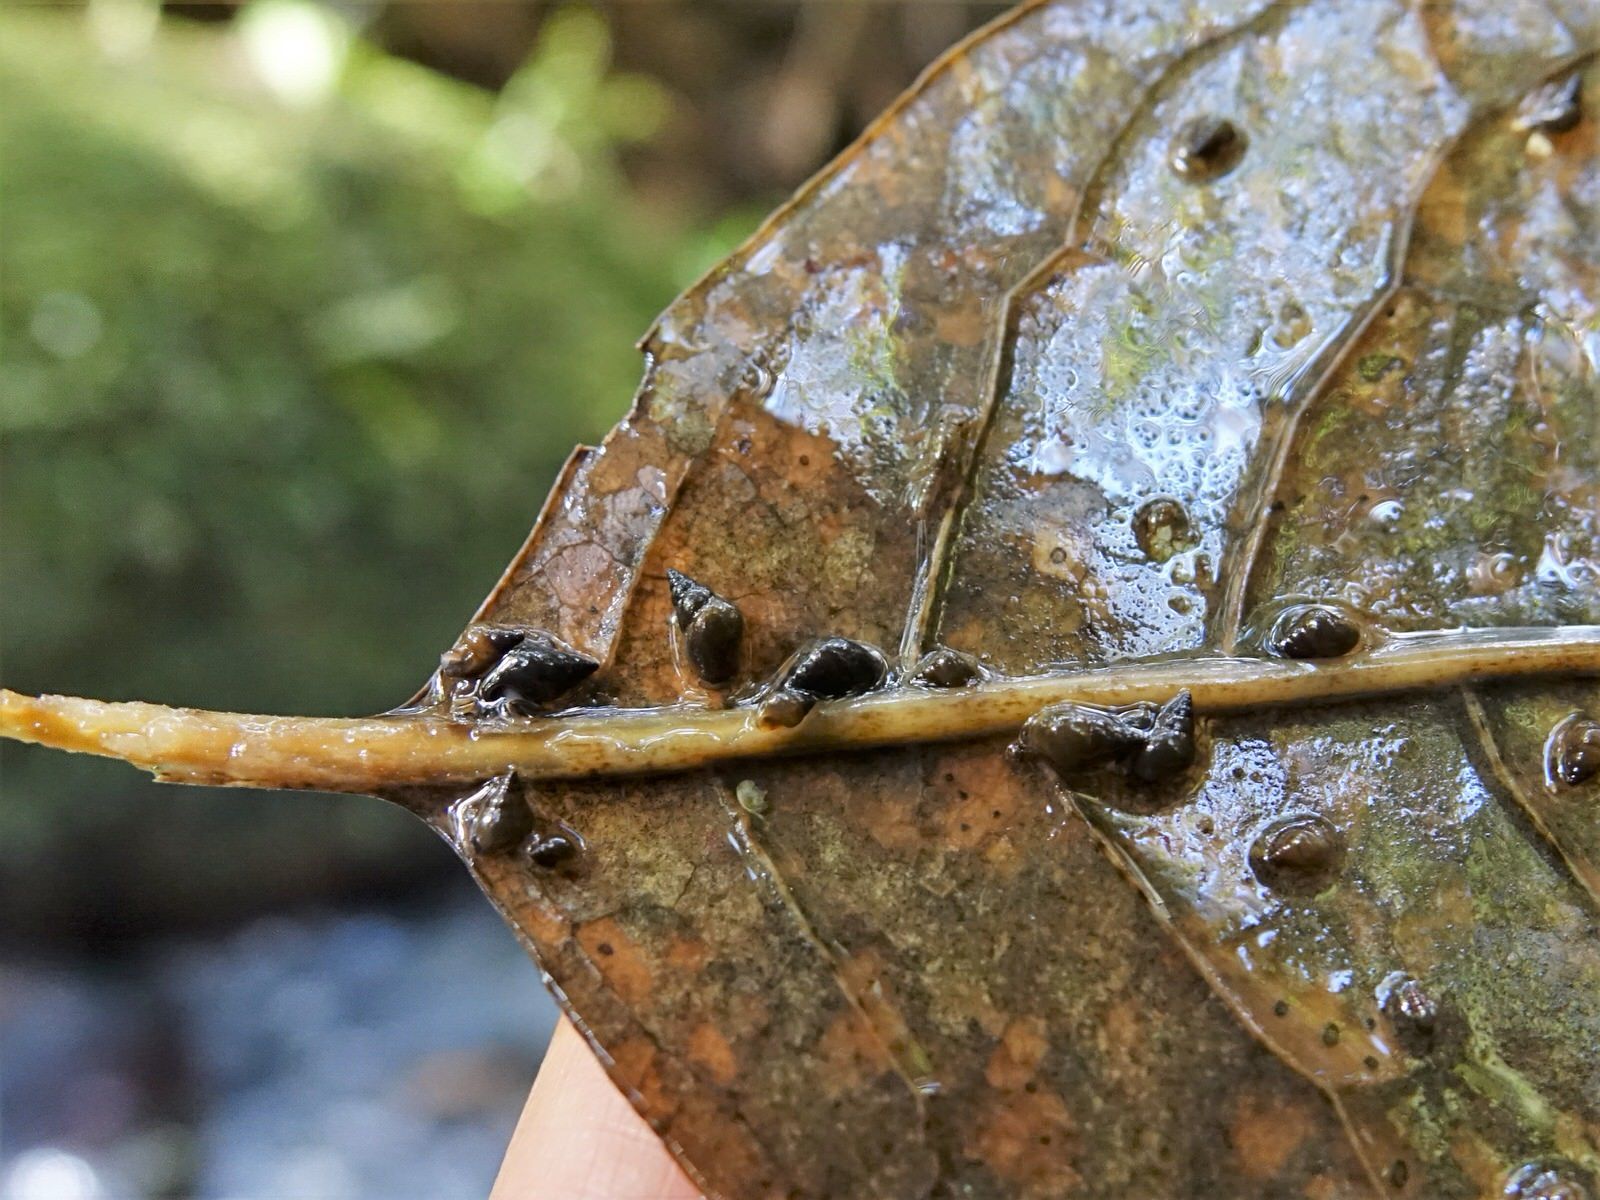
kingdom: Animalia
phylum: Mollusca
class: Gastropoda
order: Littorinimorpha
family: Tateidae
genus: Potamopyrgus
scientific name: Potamopyrgus antipodarum
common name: Jenkins' spire snail
